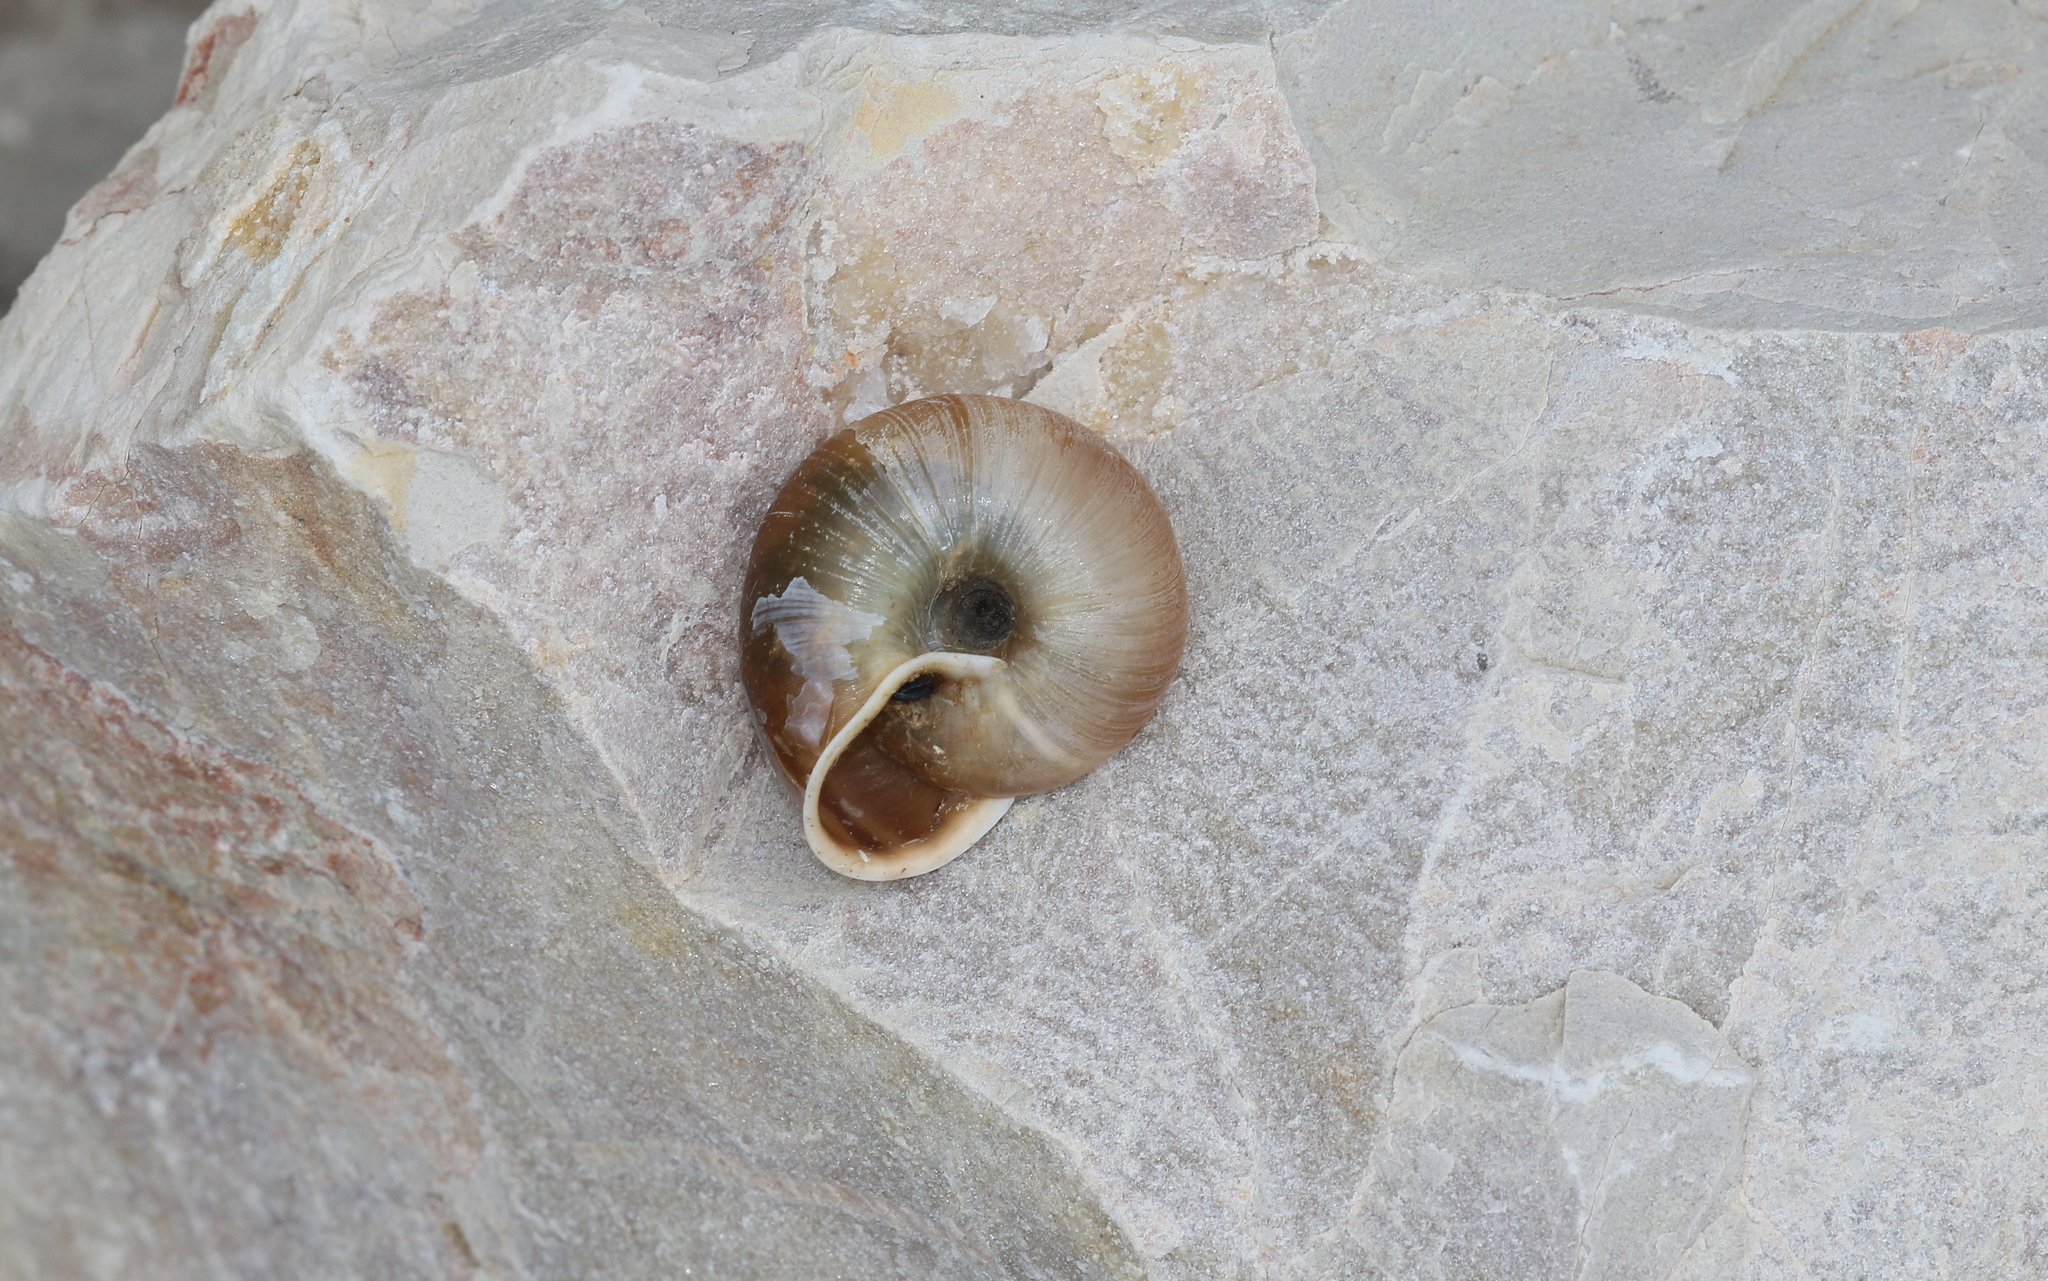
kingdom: Animalia
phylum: Mollusca
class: Gastropoda
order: Stylommatophora
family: Helicidae
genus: Campylaea
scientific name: Campylaea illyrica
